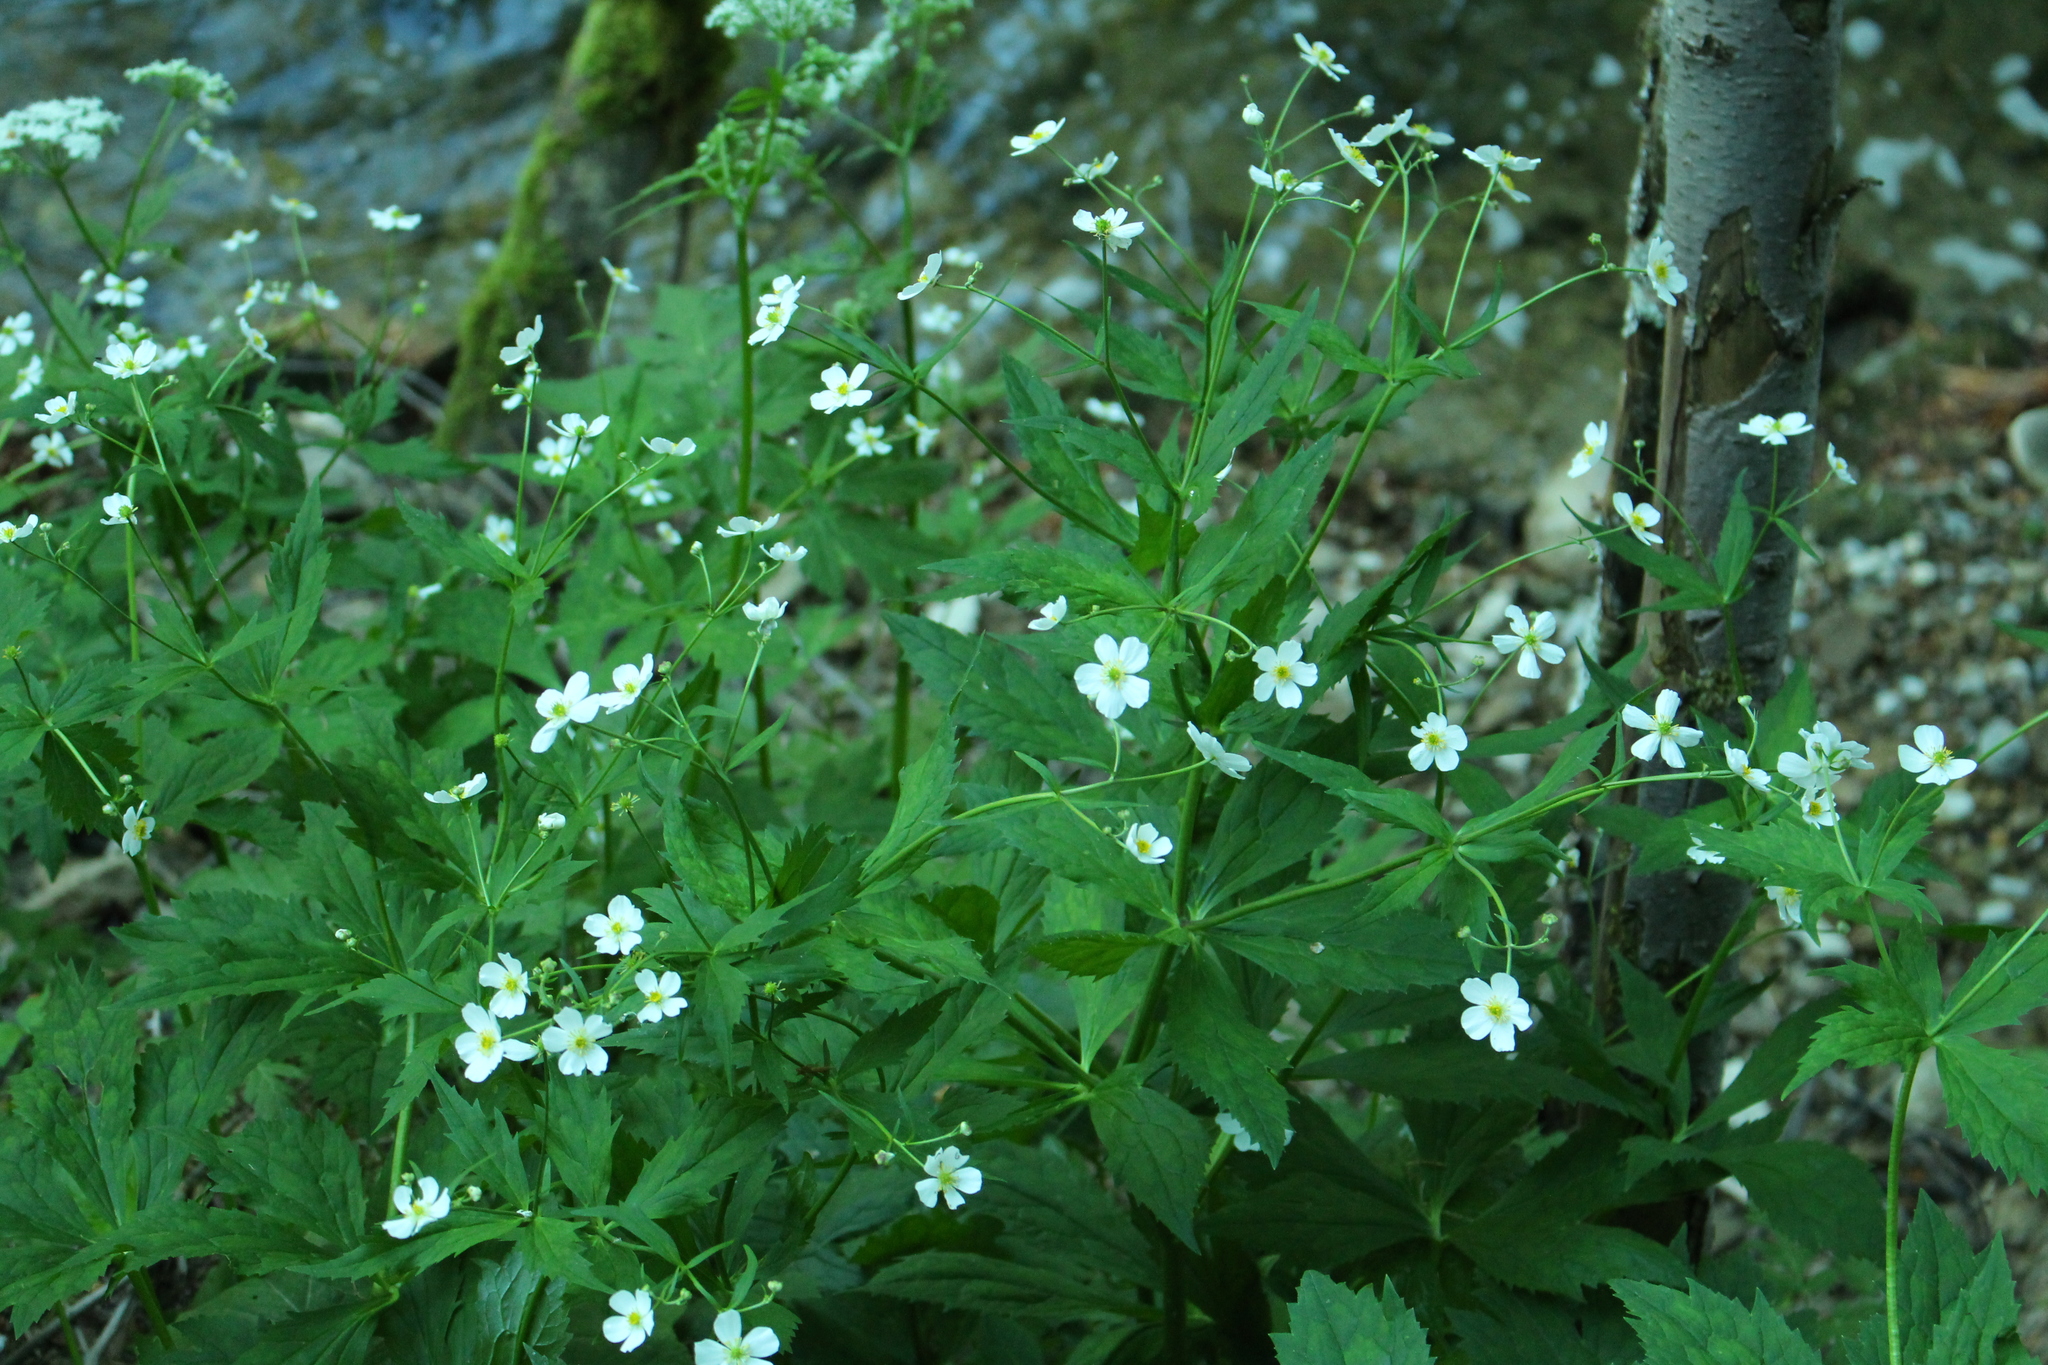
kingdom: Plantae
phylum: Tracheophyta
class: Magnoliopsida
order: Ranunculales
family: Ranunculaceae
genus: Ranunculus
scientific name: Ranunculus aconitifolius
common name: Aconite-leaved buttercup
